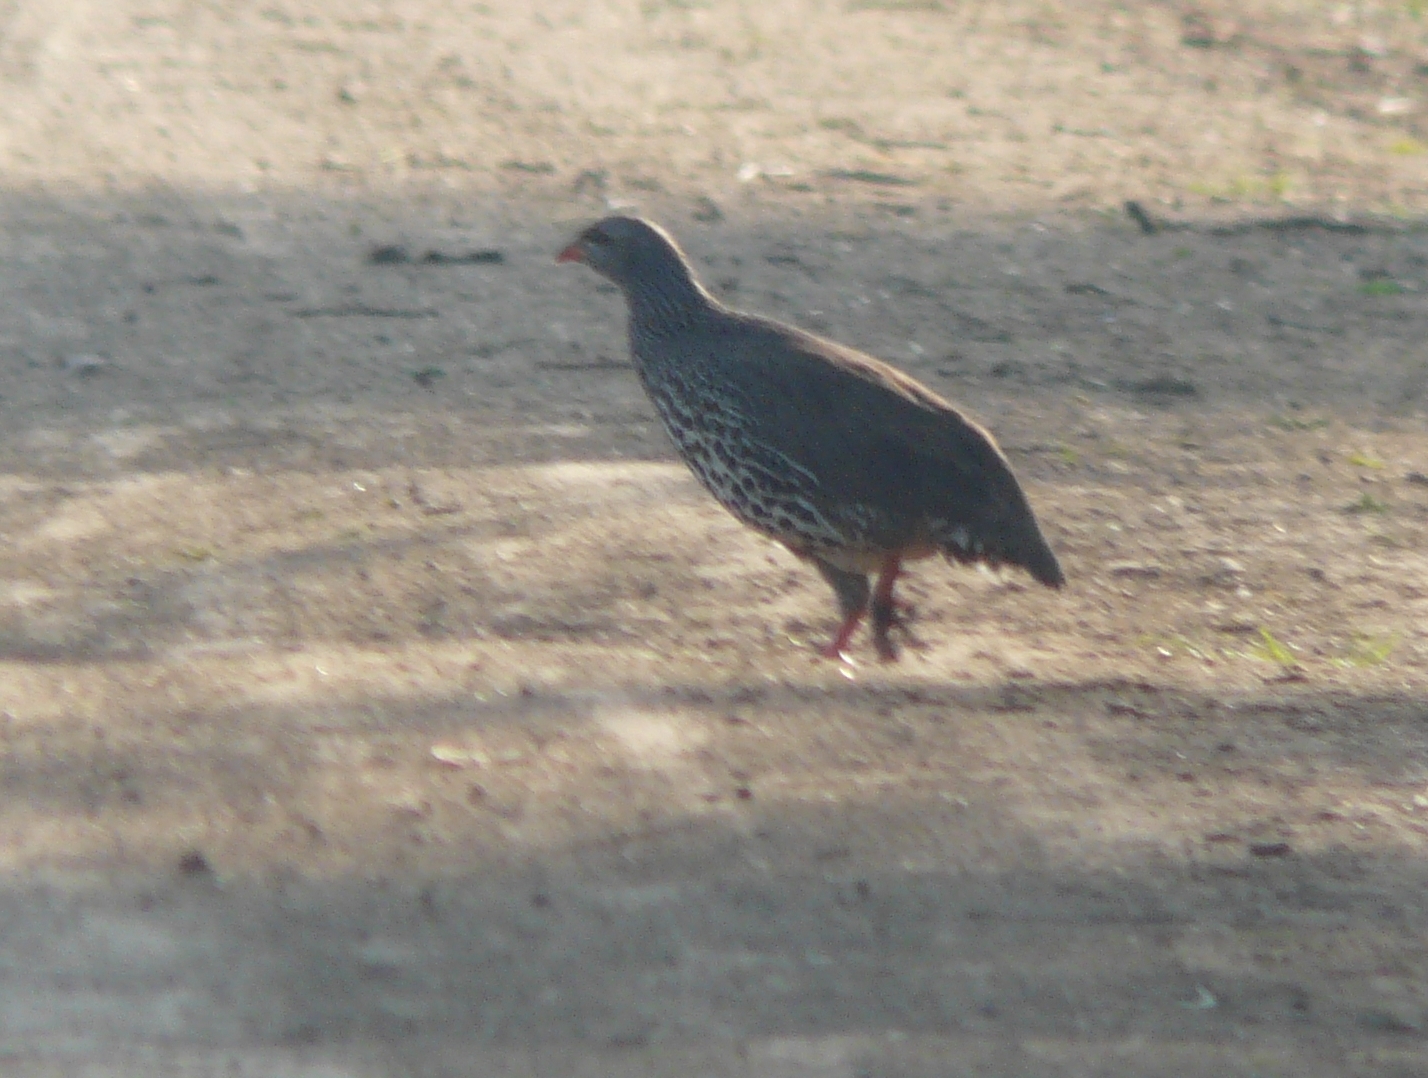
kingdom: Animalia
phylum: Chordata
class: Aves
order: Galliformes
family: Phasianidae
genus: Pternistis
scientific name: Pternistis hildebrandti
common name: Hildebrandt's francolin
